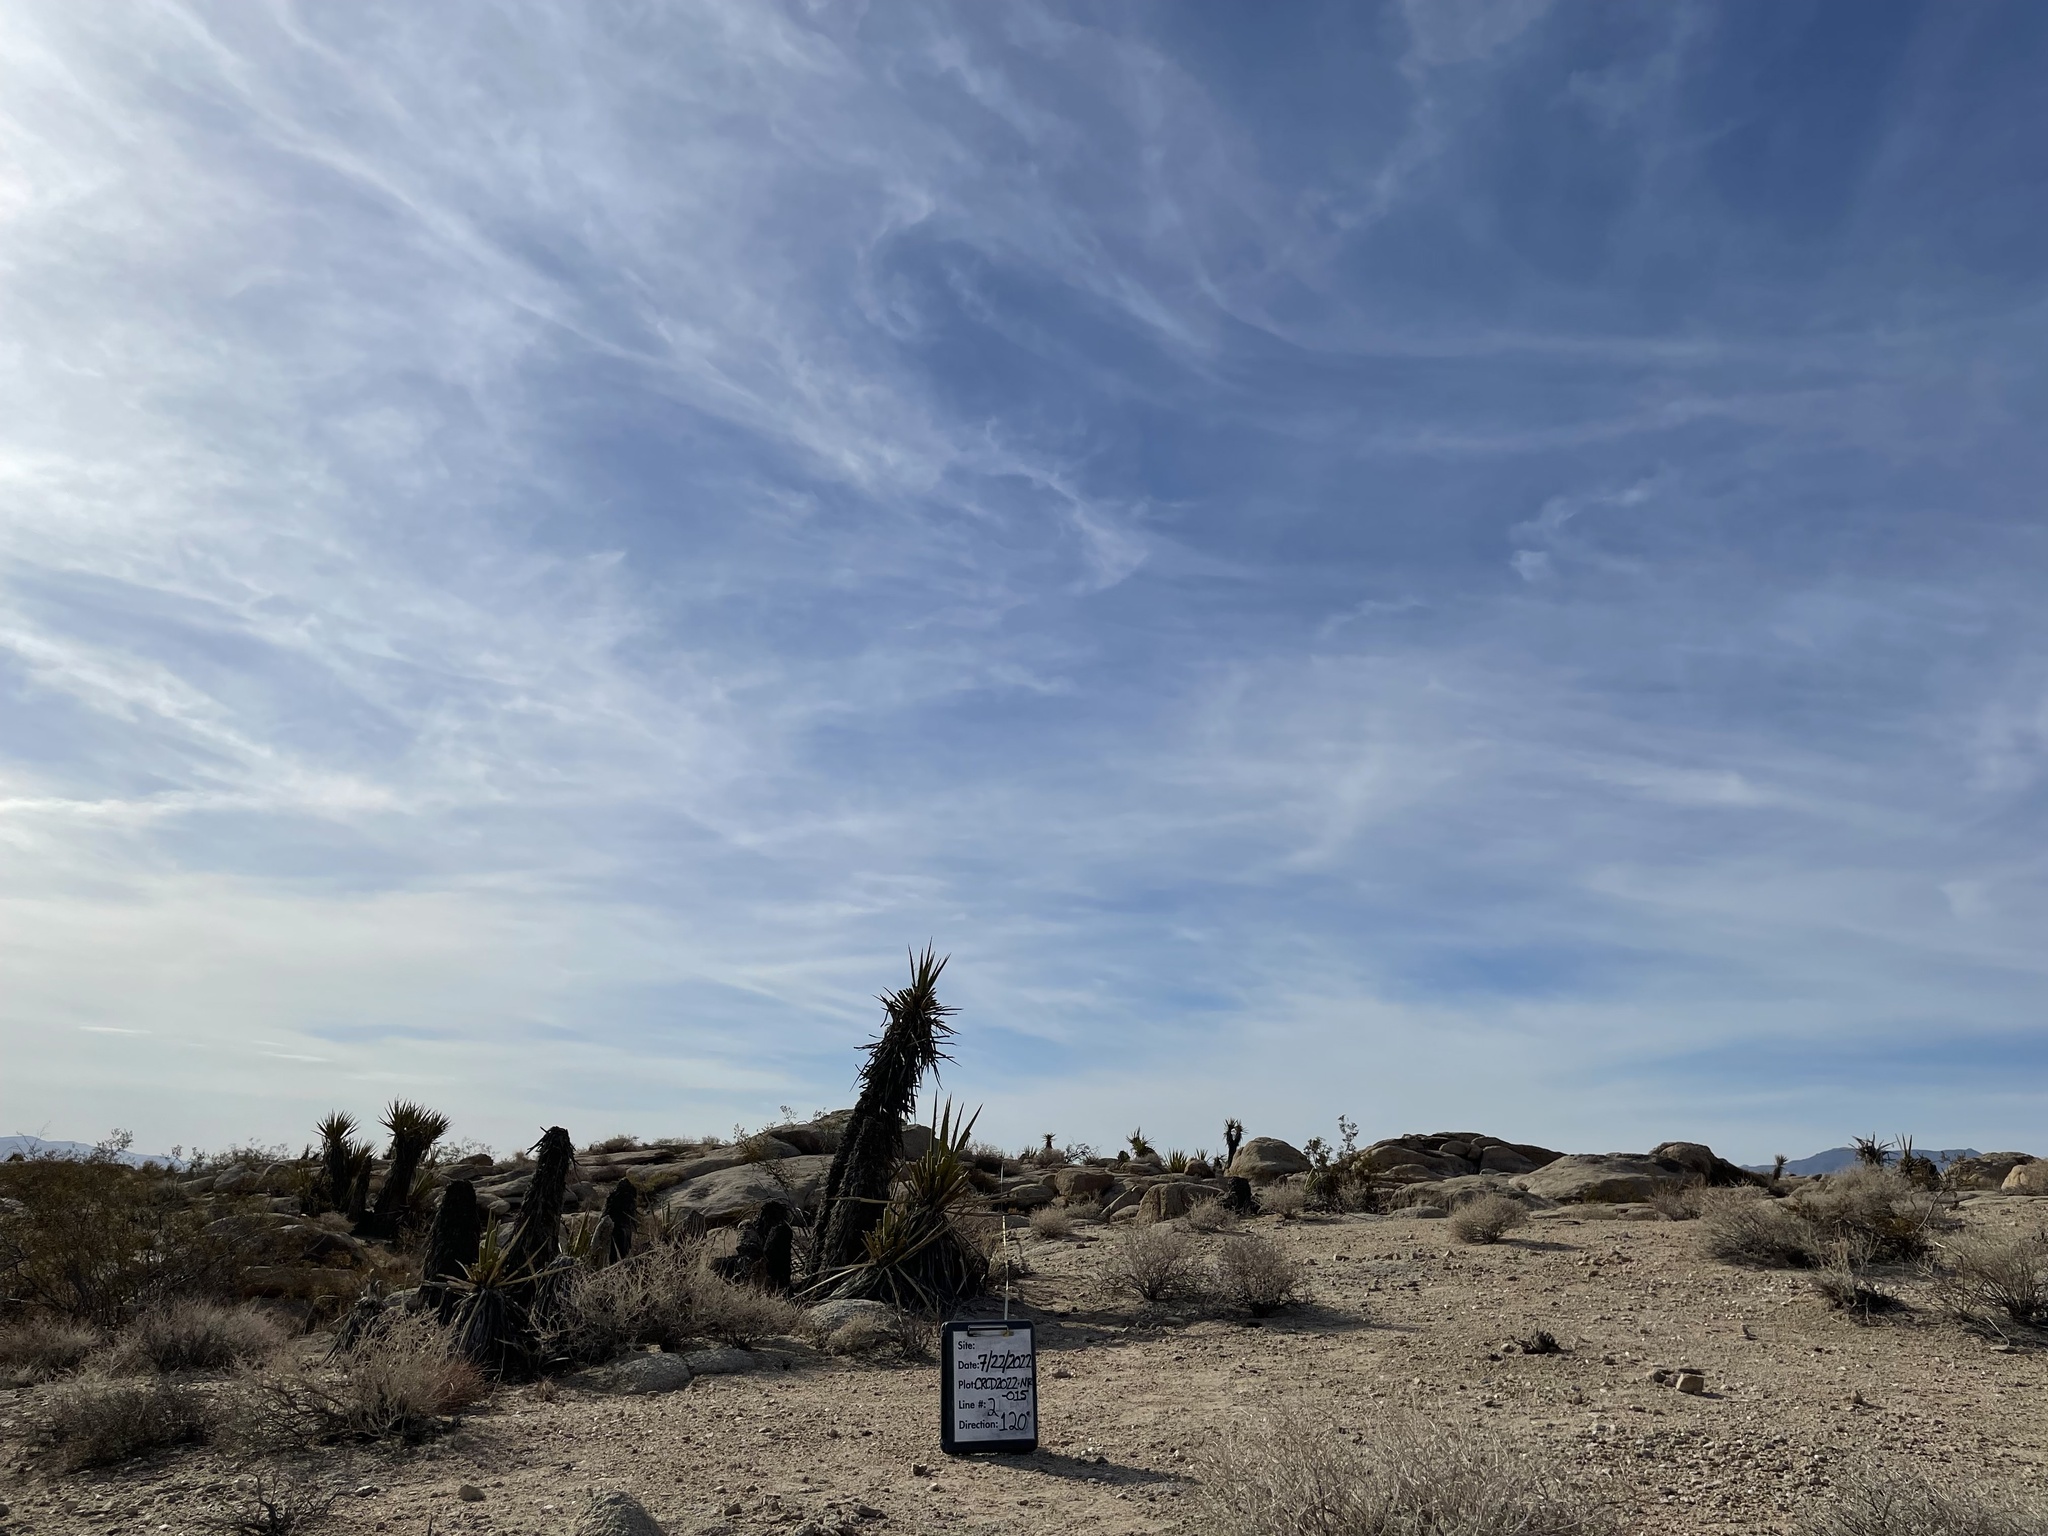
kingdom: Plantae
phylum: Tracheophyta
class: Liliopsida
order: Asparagales
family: Asparagaceae
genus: Yucca
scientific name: Yucca schidigera
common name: Mojave yucca
